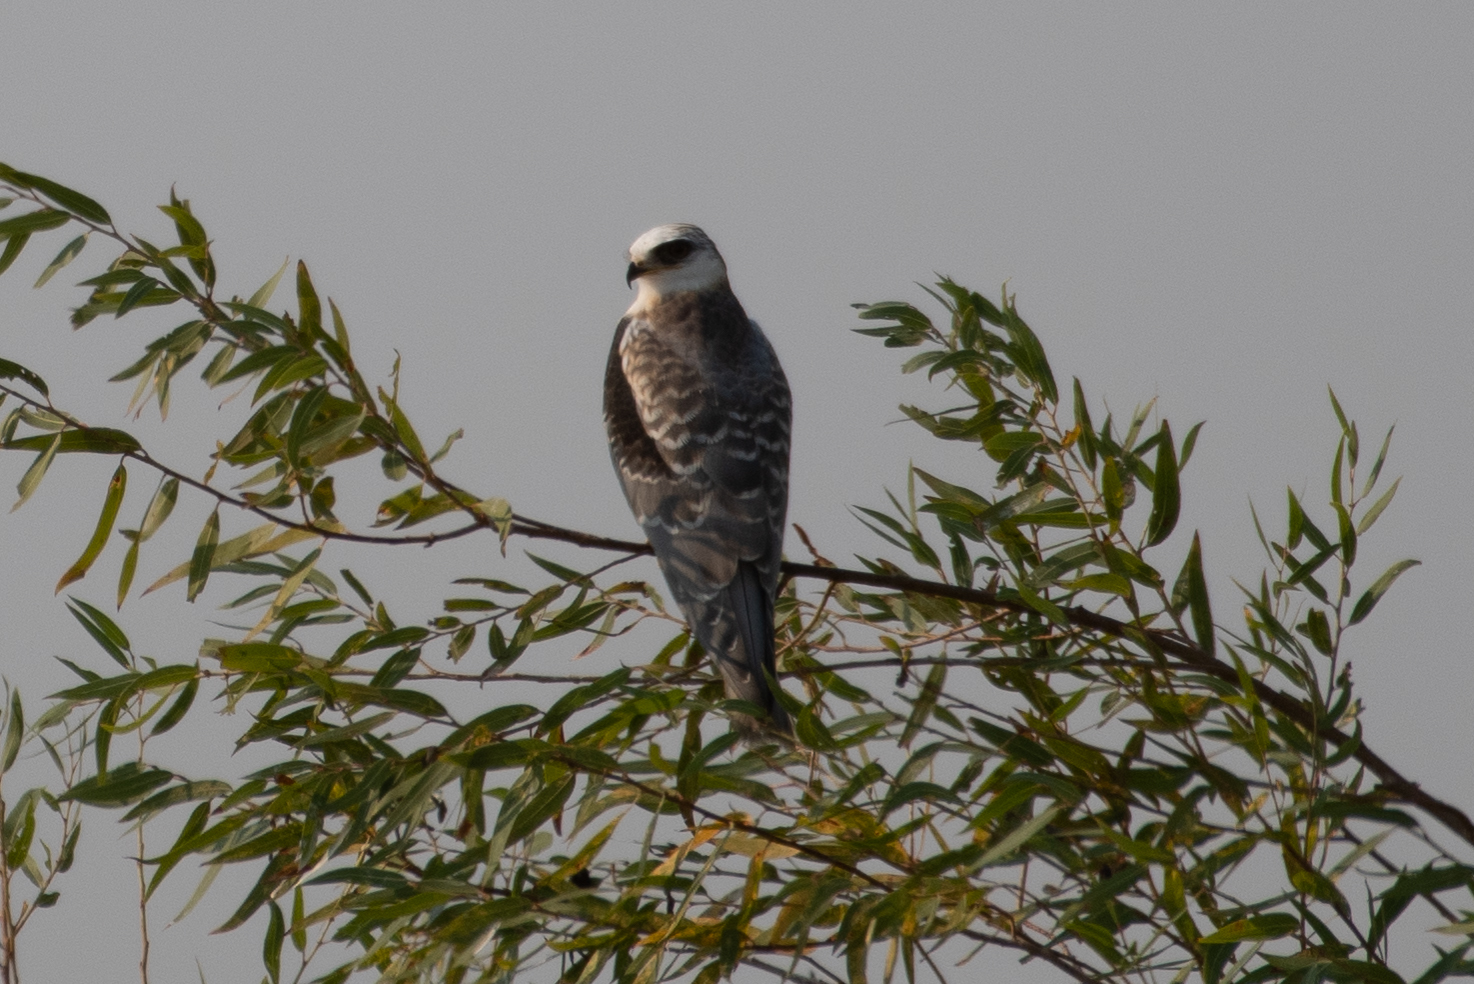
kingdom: Animalia
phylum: Chordata
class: Aves
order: Accipitriformes
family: Accipitridae
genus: Elanus
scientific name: Elanus leucurus
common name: White-tailed kite
